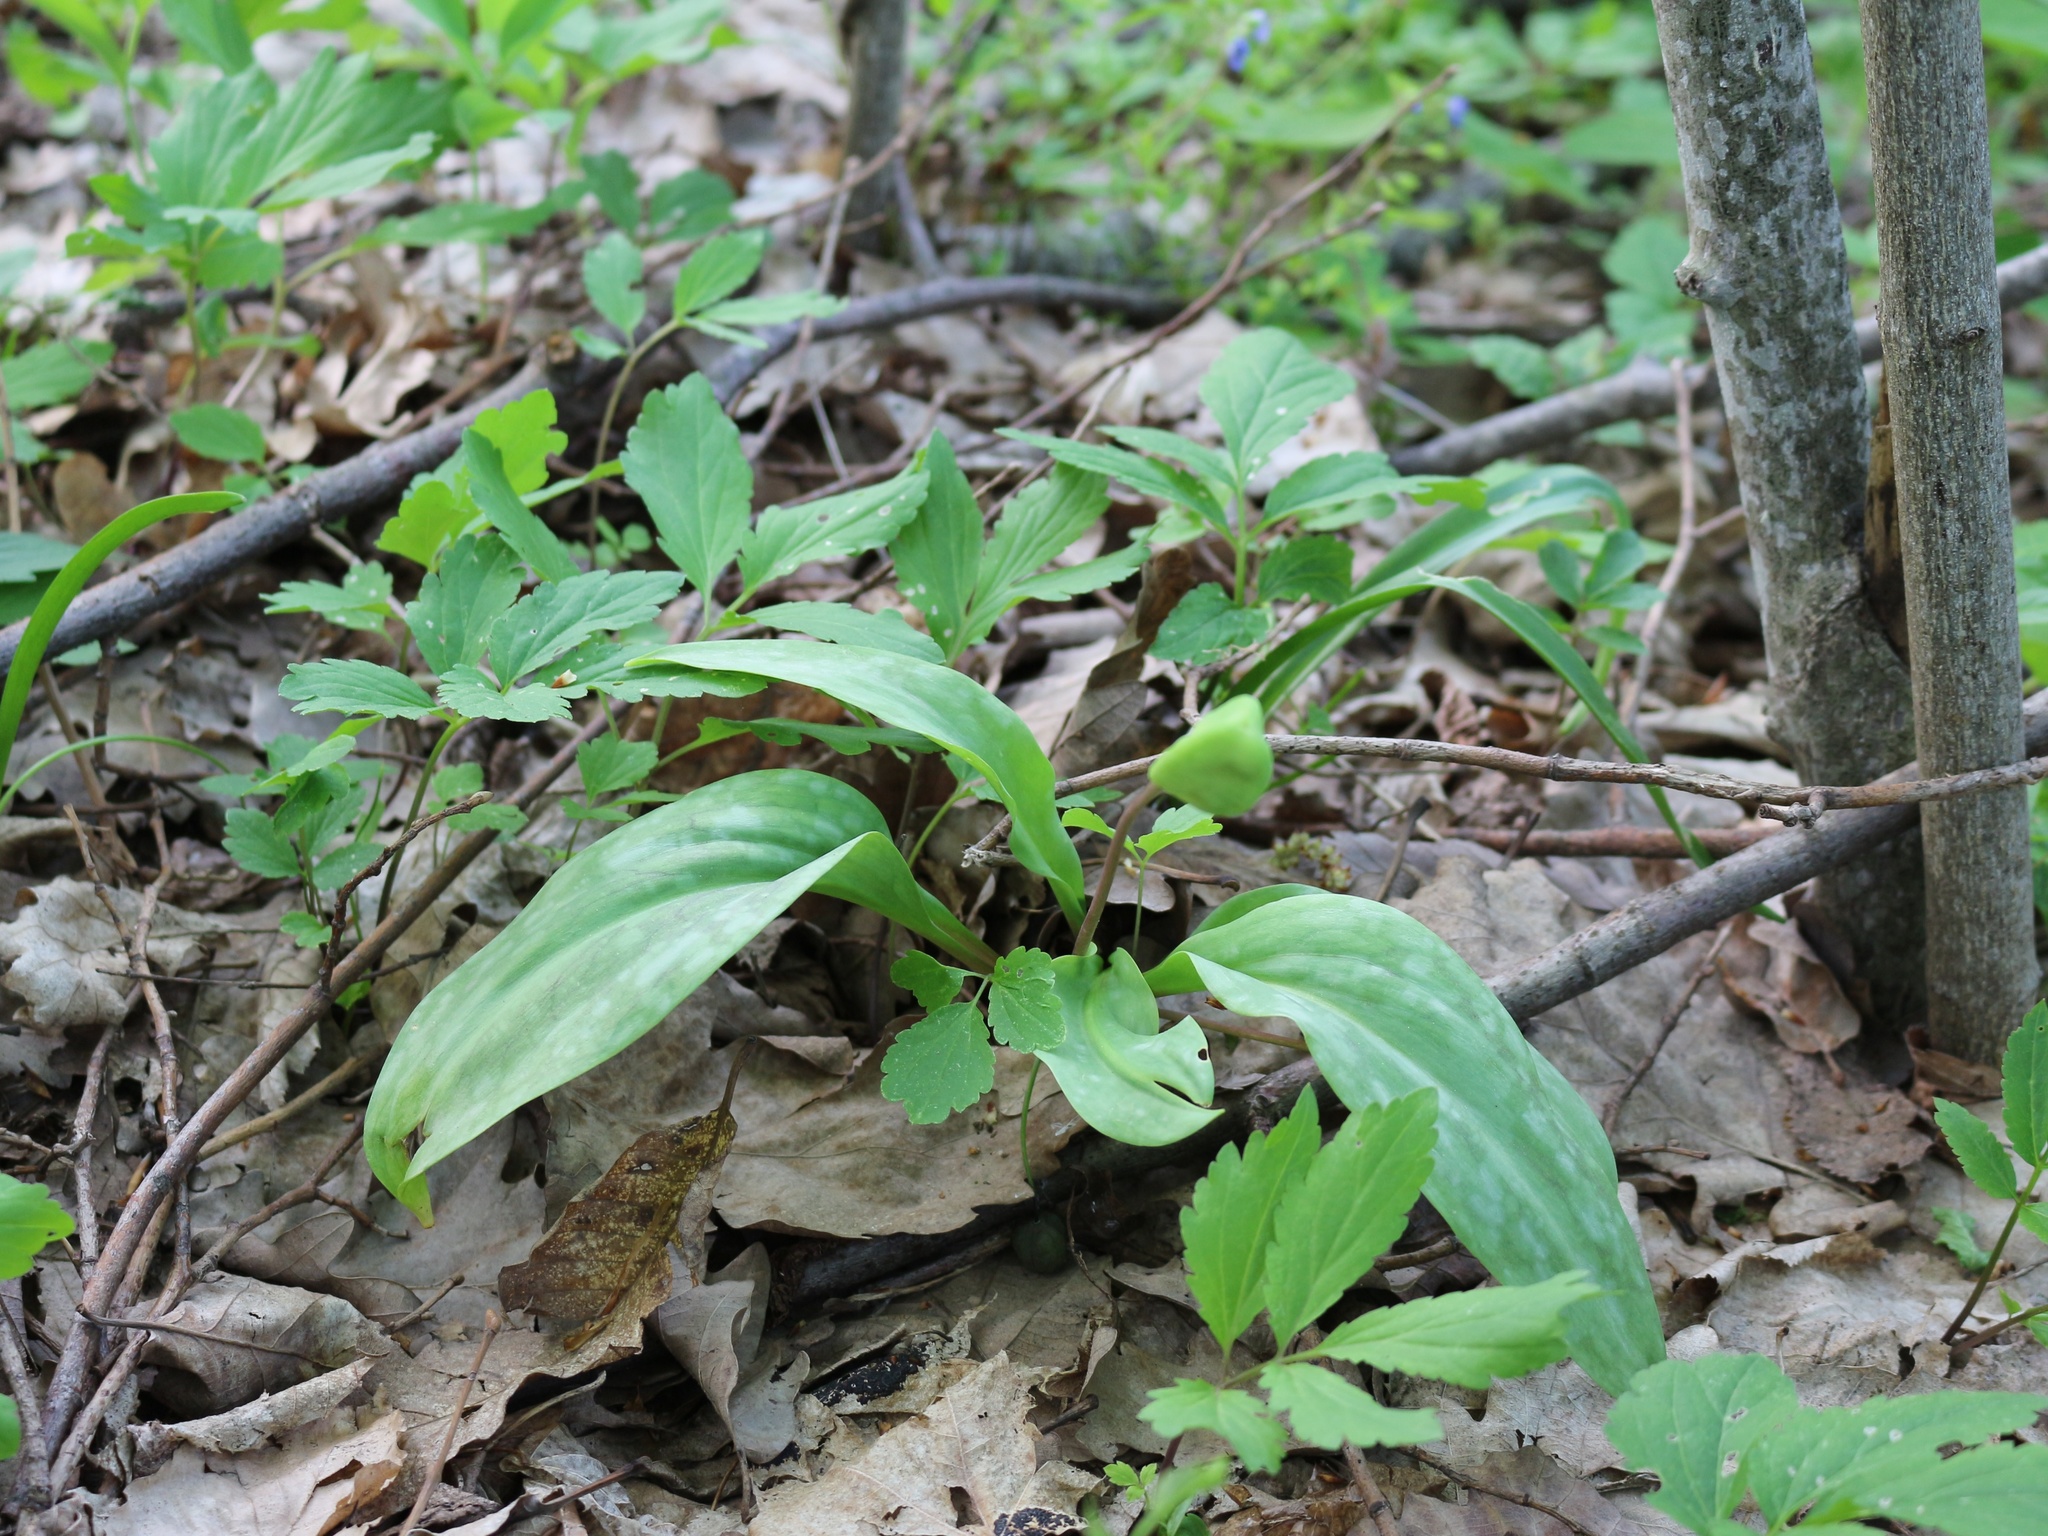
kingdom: Plantae
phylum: Tracheophyta
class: Liliopsida
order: Liliales
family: Liliaceae
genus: Erythronium
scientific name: Erythronium caucasicum
